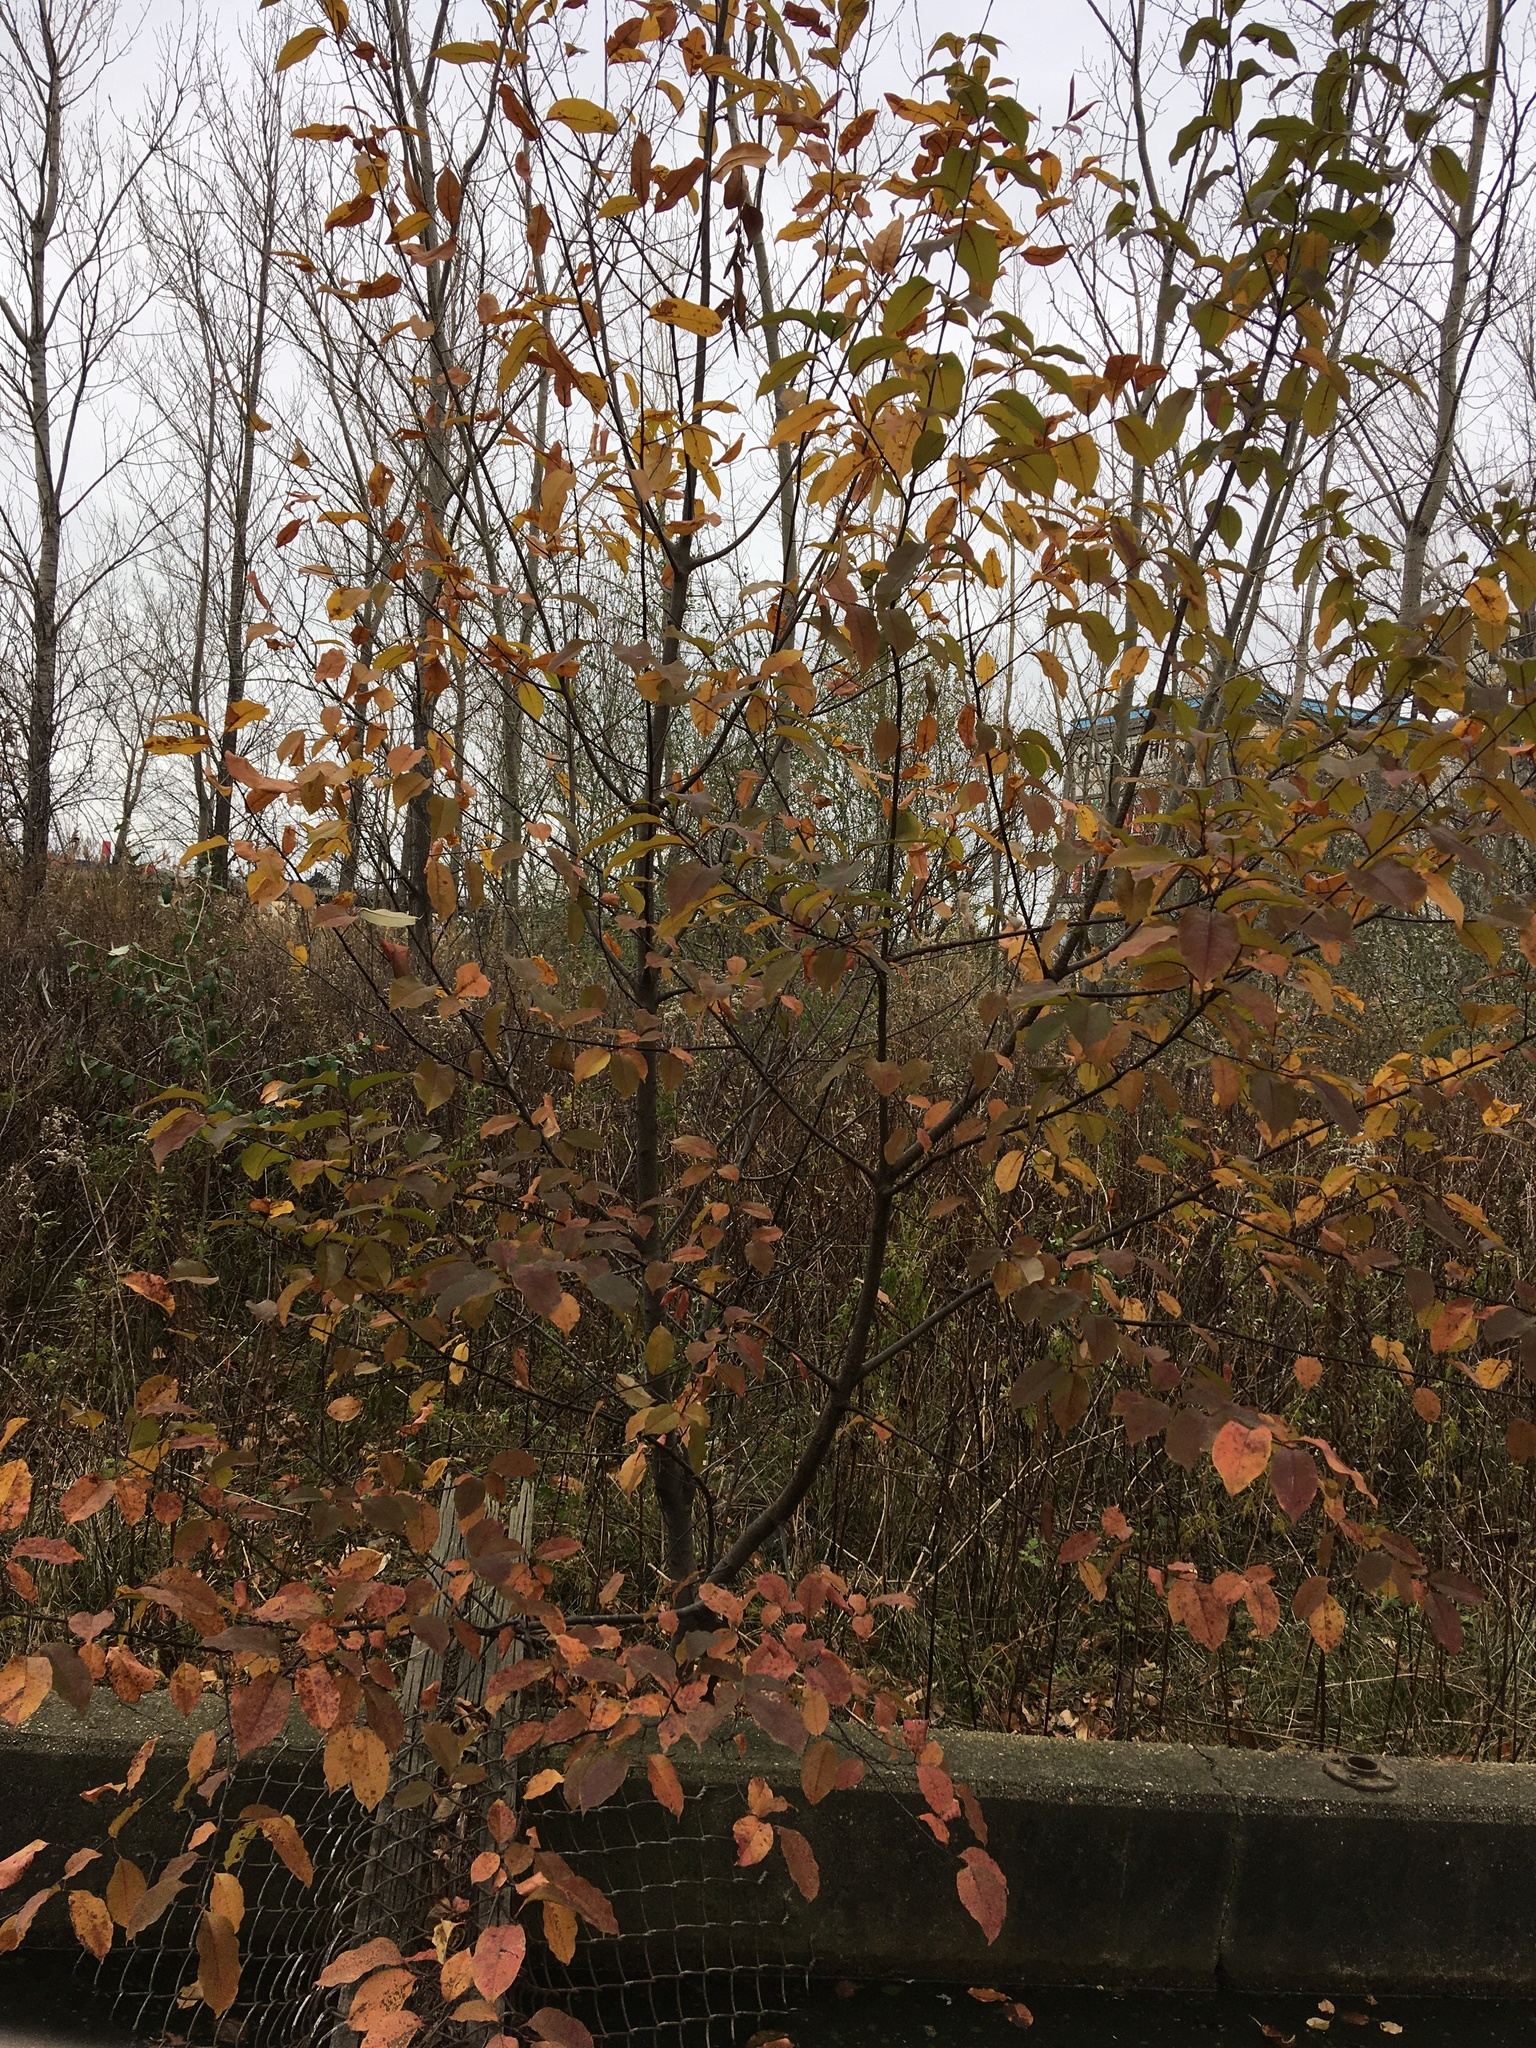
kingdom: Plantae
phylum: Tracheophyta
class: Magnoliopsida
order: Rosales
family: Rosaceae
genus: Prunus
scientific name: Prunus serotina
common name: Black cherry
